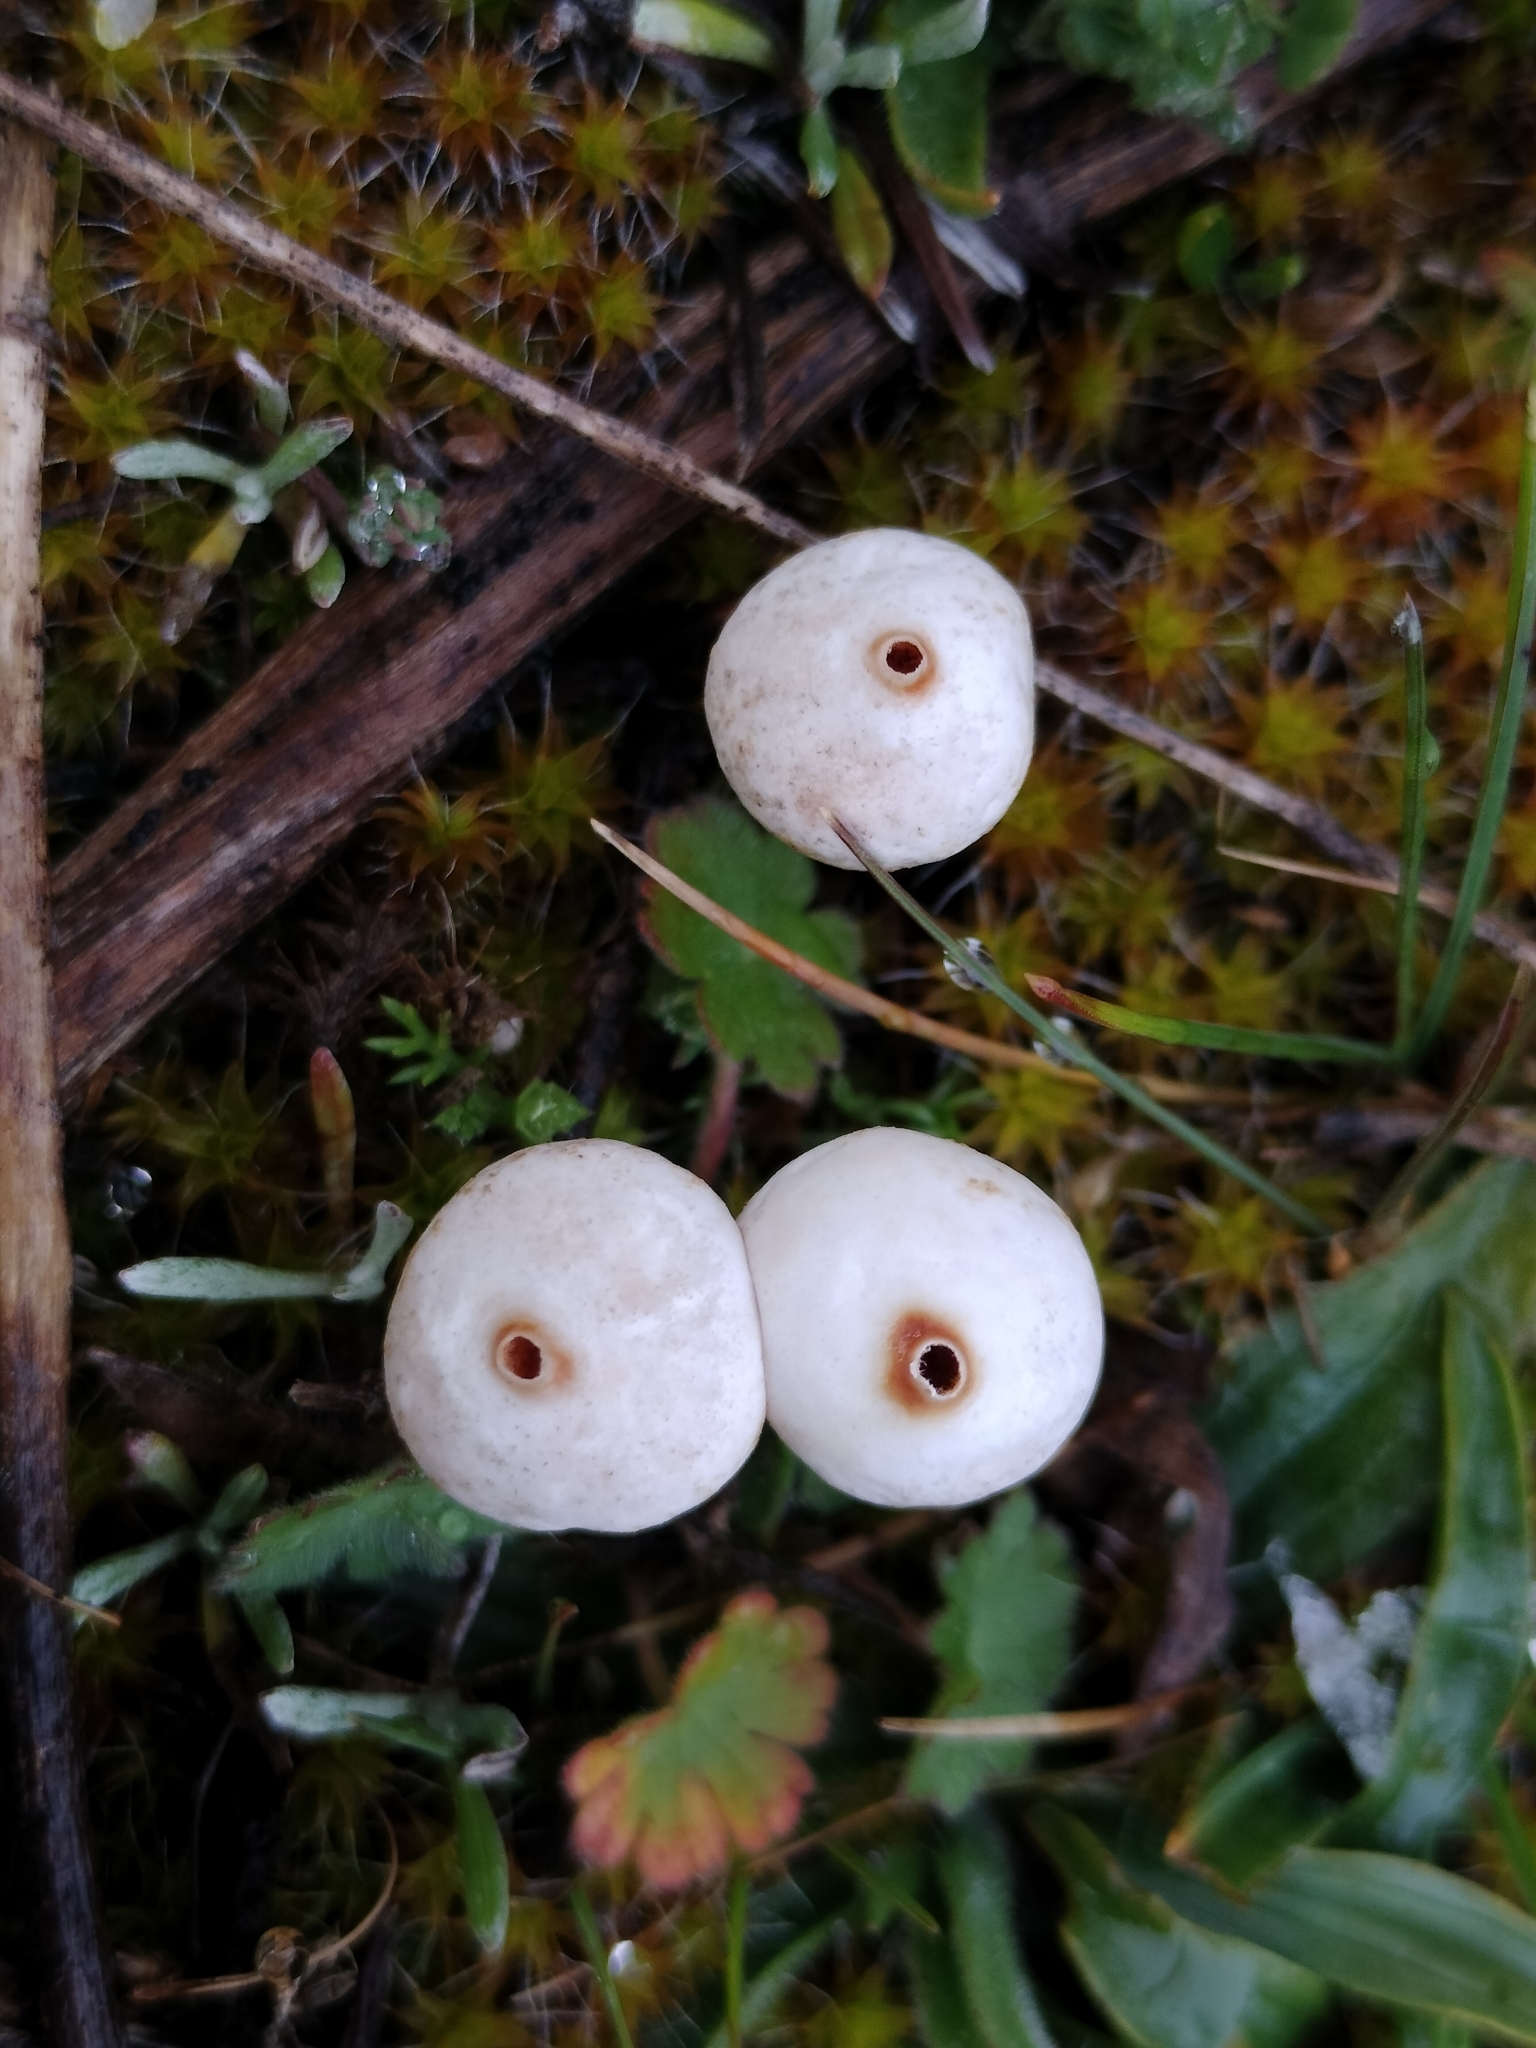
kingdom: Fungi
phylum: Basidiomycota
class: Agaricomycetes
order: Agaricales
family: Agaricaceae
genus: Tulostoma
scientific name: Tulostoma brumale
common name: Winter stalk puffball
